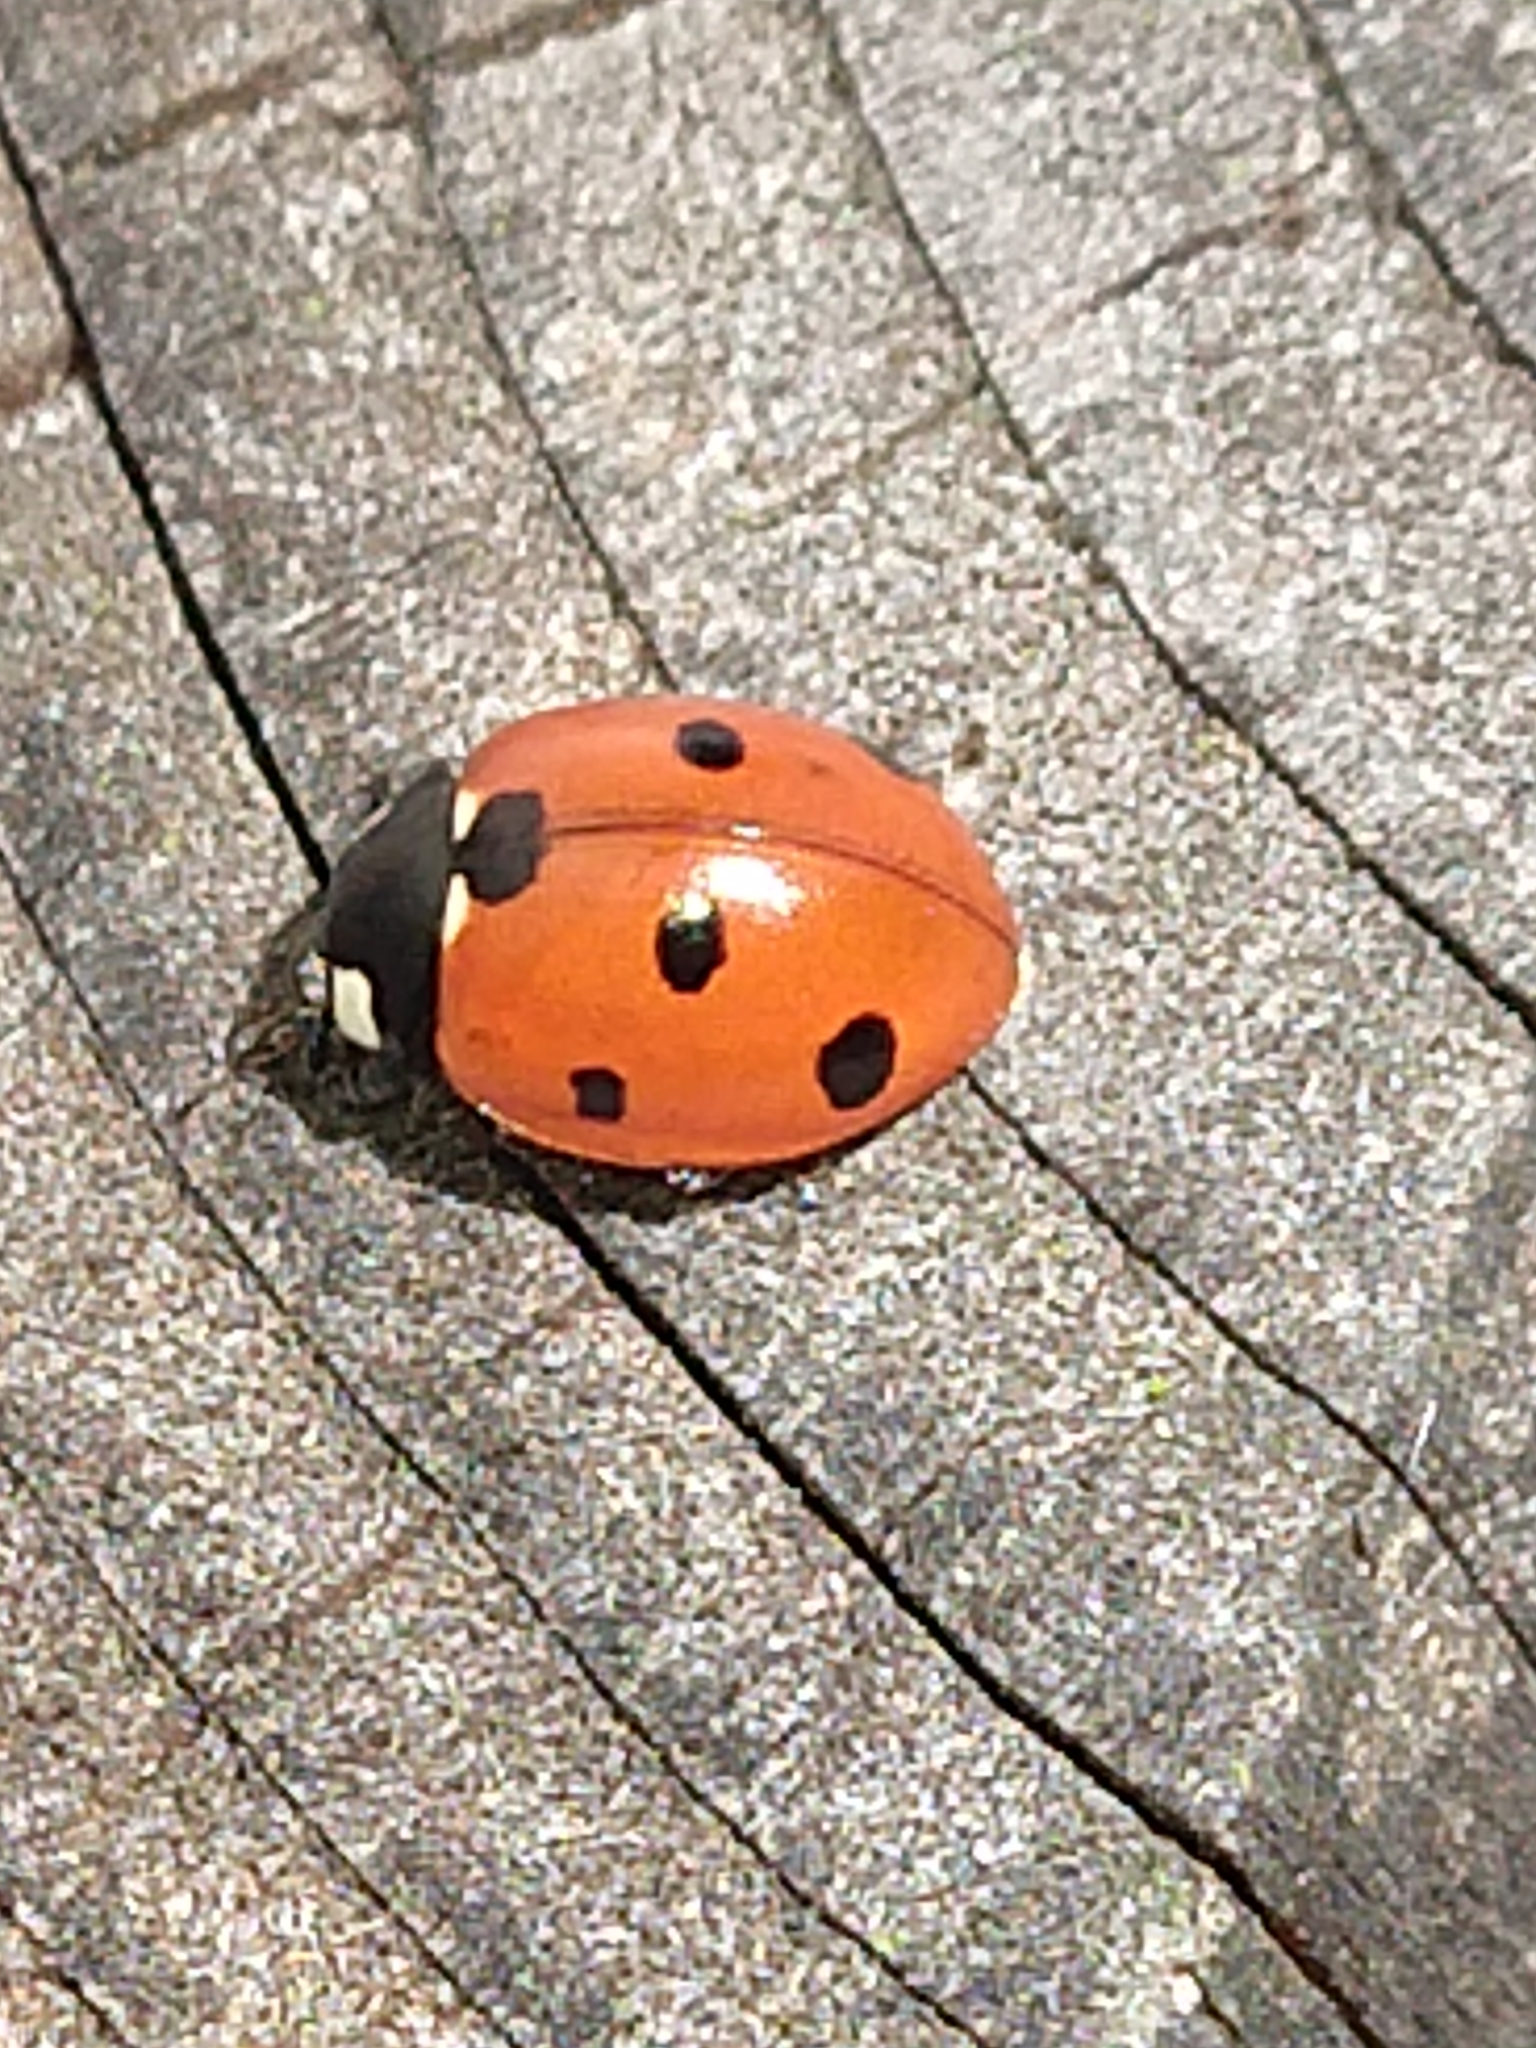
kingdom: Animalia
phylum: Arthropoda
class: Insecta
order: Coleoptera
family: Coccinellidae
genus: Coccinella
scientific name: Coccinella septempunctata
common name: Sevenspotted lady beetle
